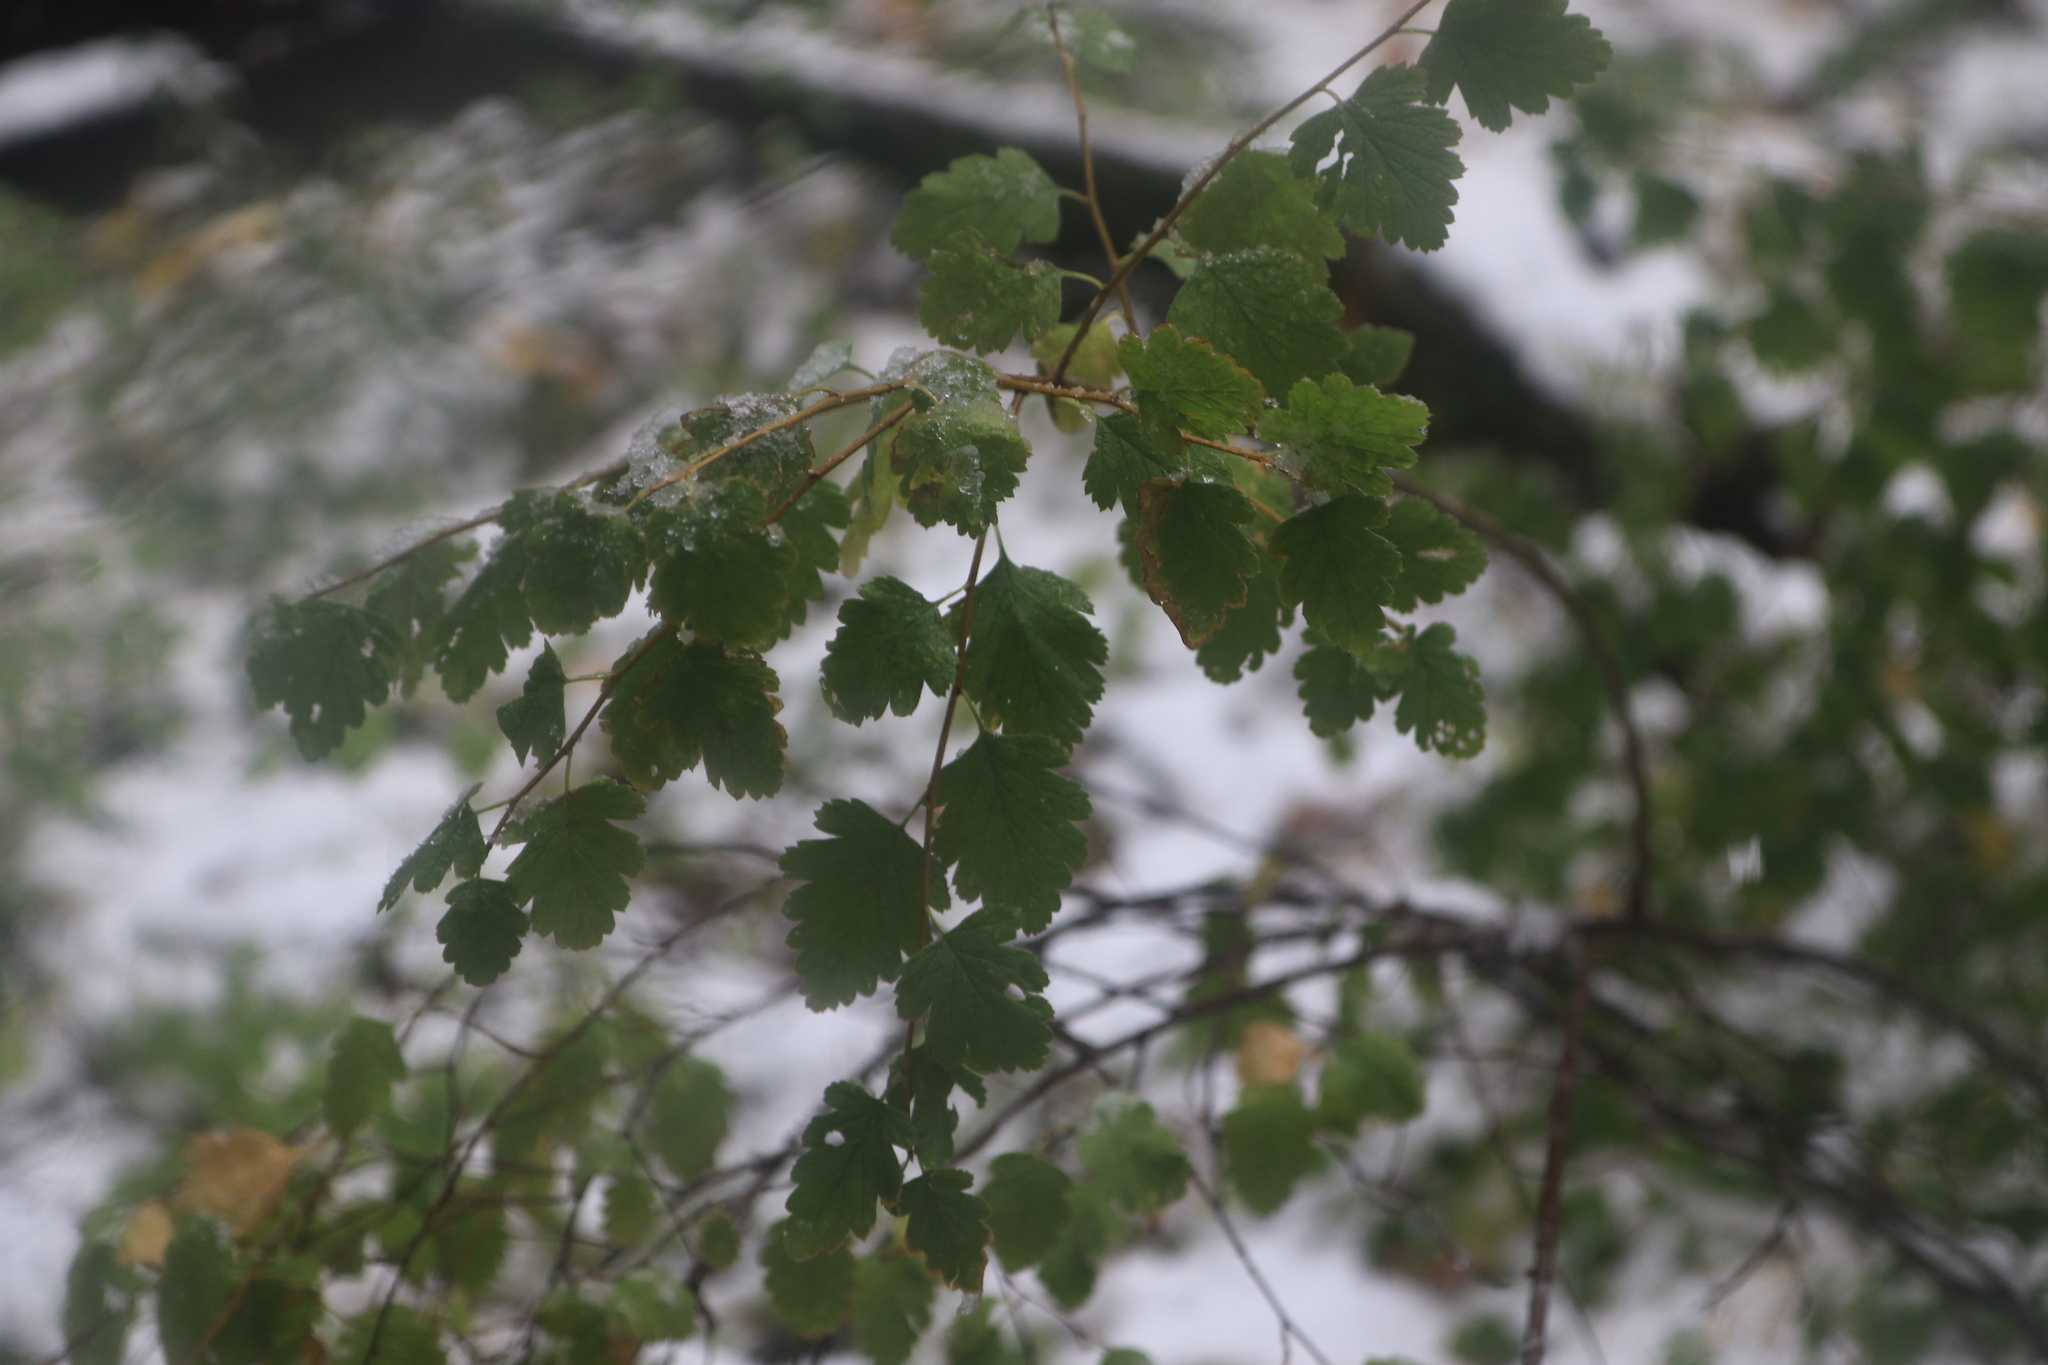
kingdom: Plantae
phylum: Tracheophyta
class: Magnoliopsida
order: Rosales
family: Rosaceae
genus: Holodiscus
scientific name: Holodiscus discolor
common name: Oceanspray
